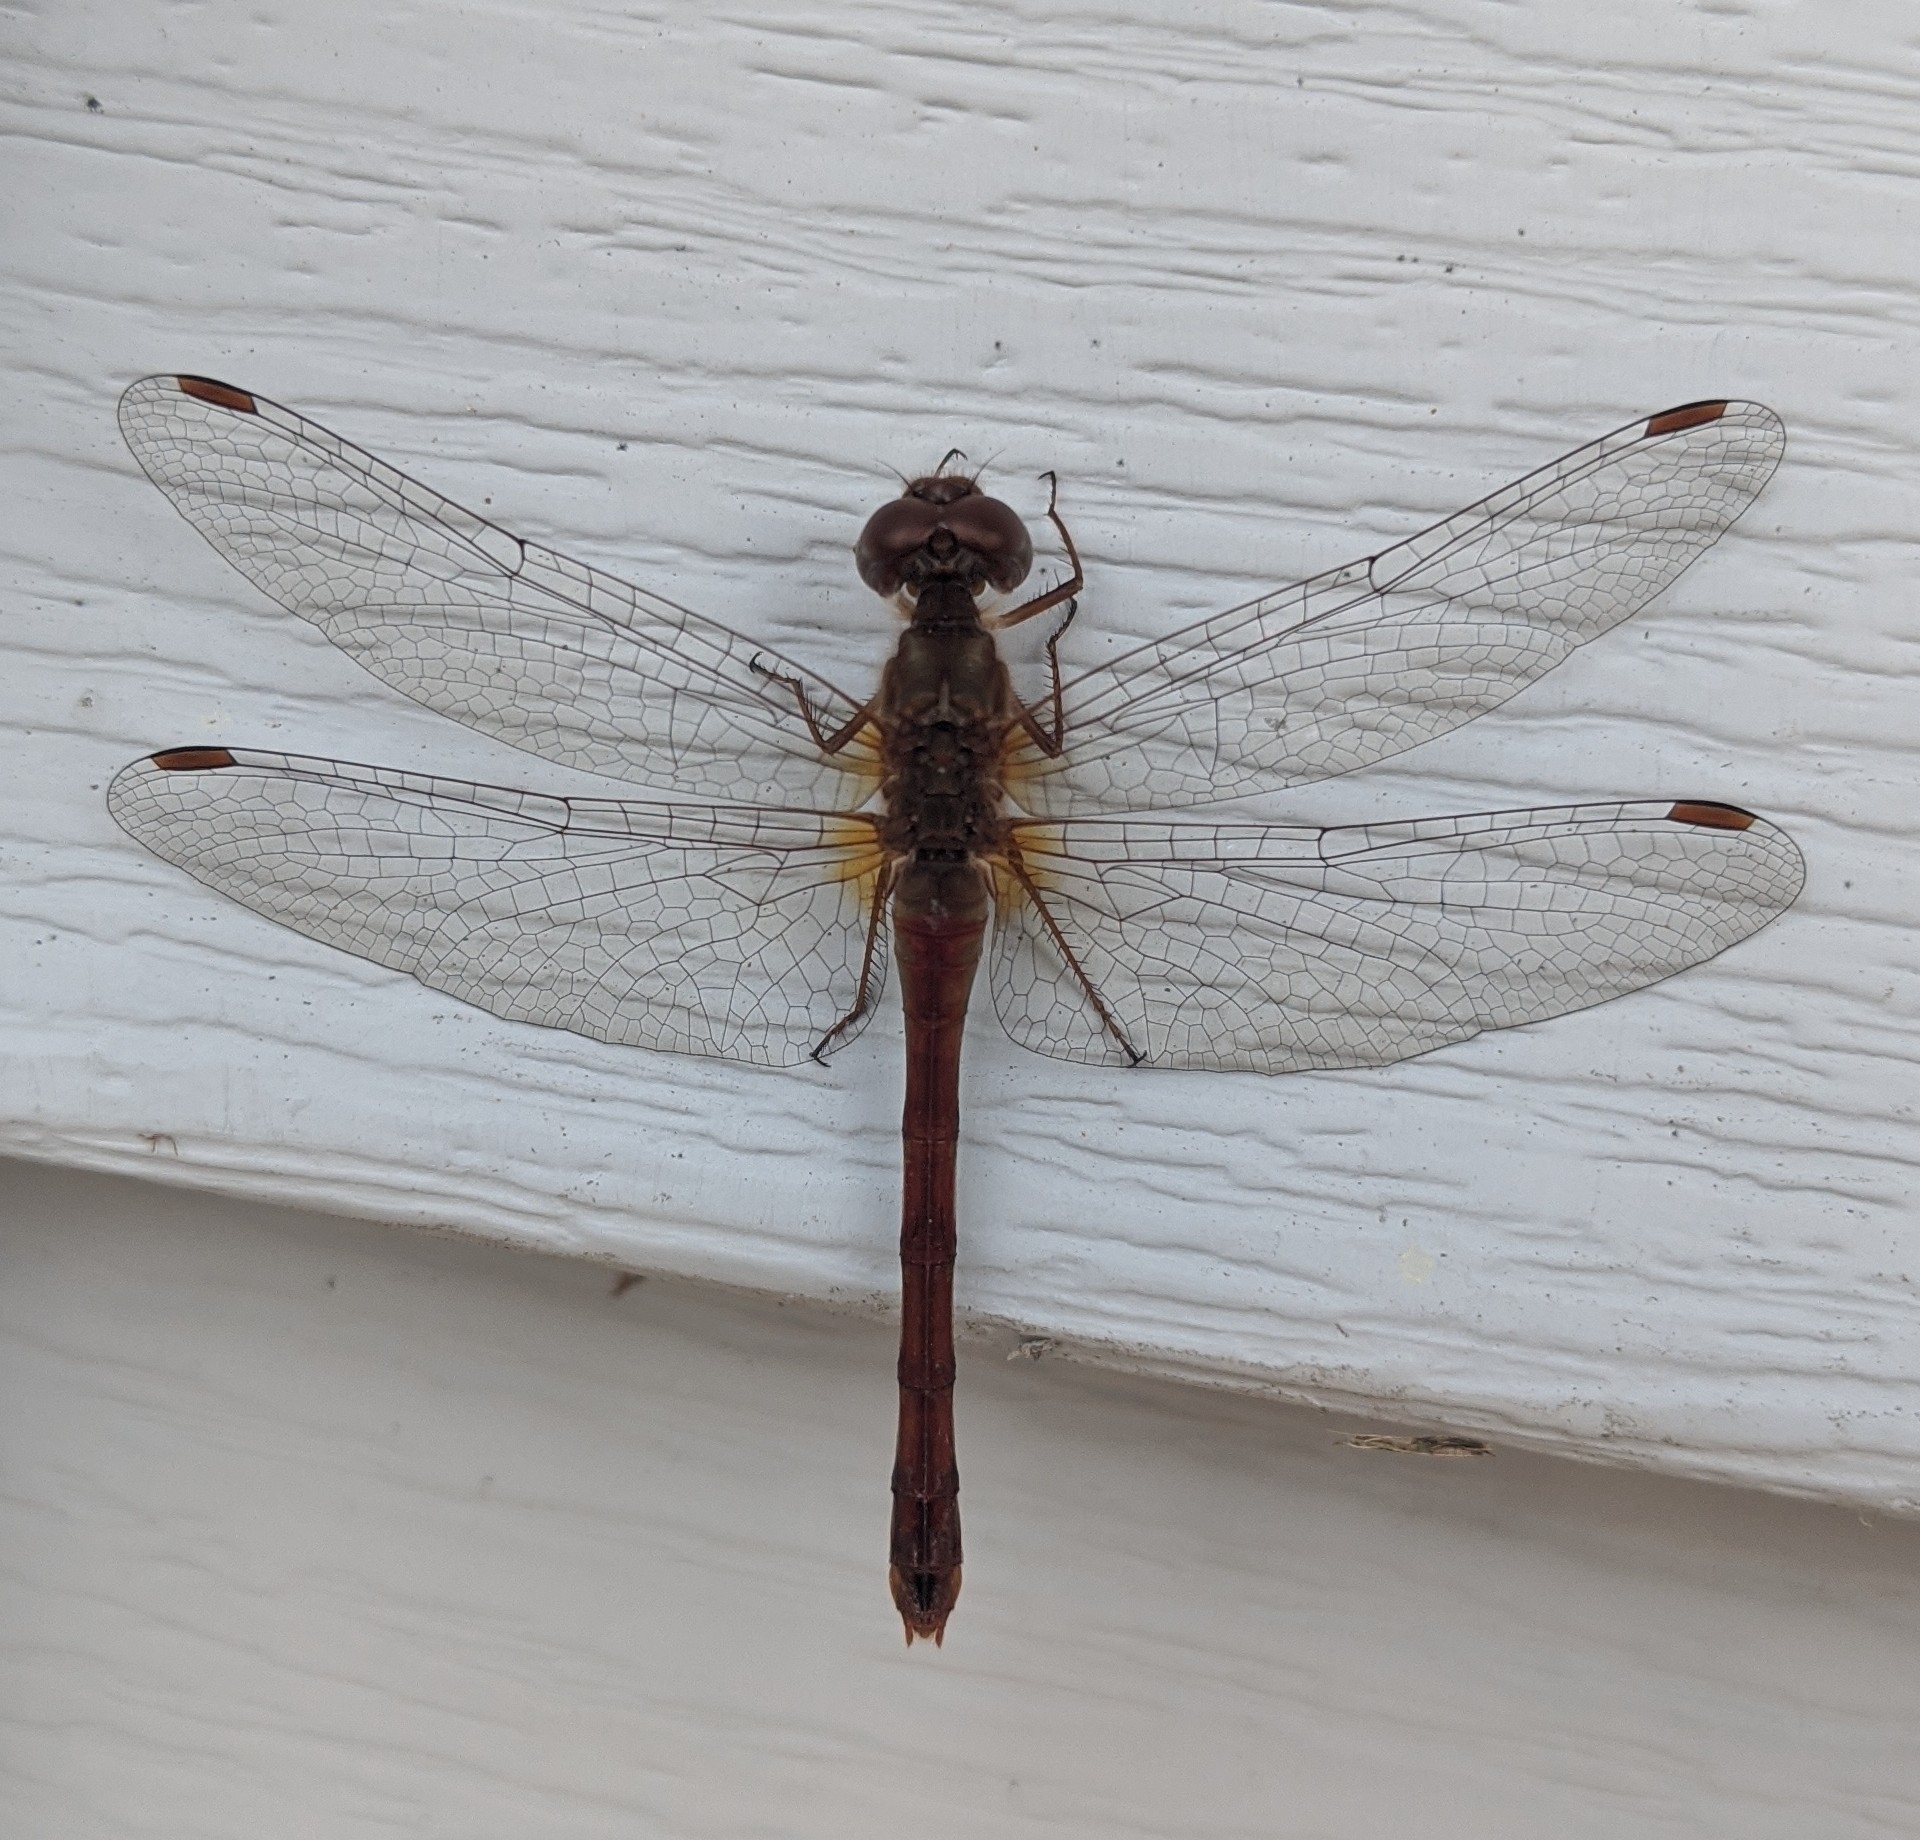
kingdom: Animalia
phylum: Arthropoda
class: Insecta
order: Odonata
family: Libellulidae
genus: Sympetrum
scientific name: Sympetrum vicinum
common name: Autumn meadowhawk
